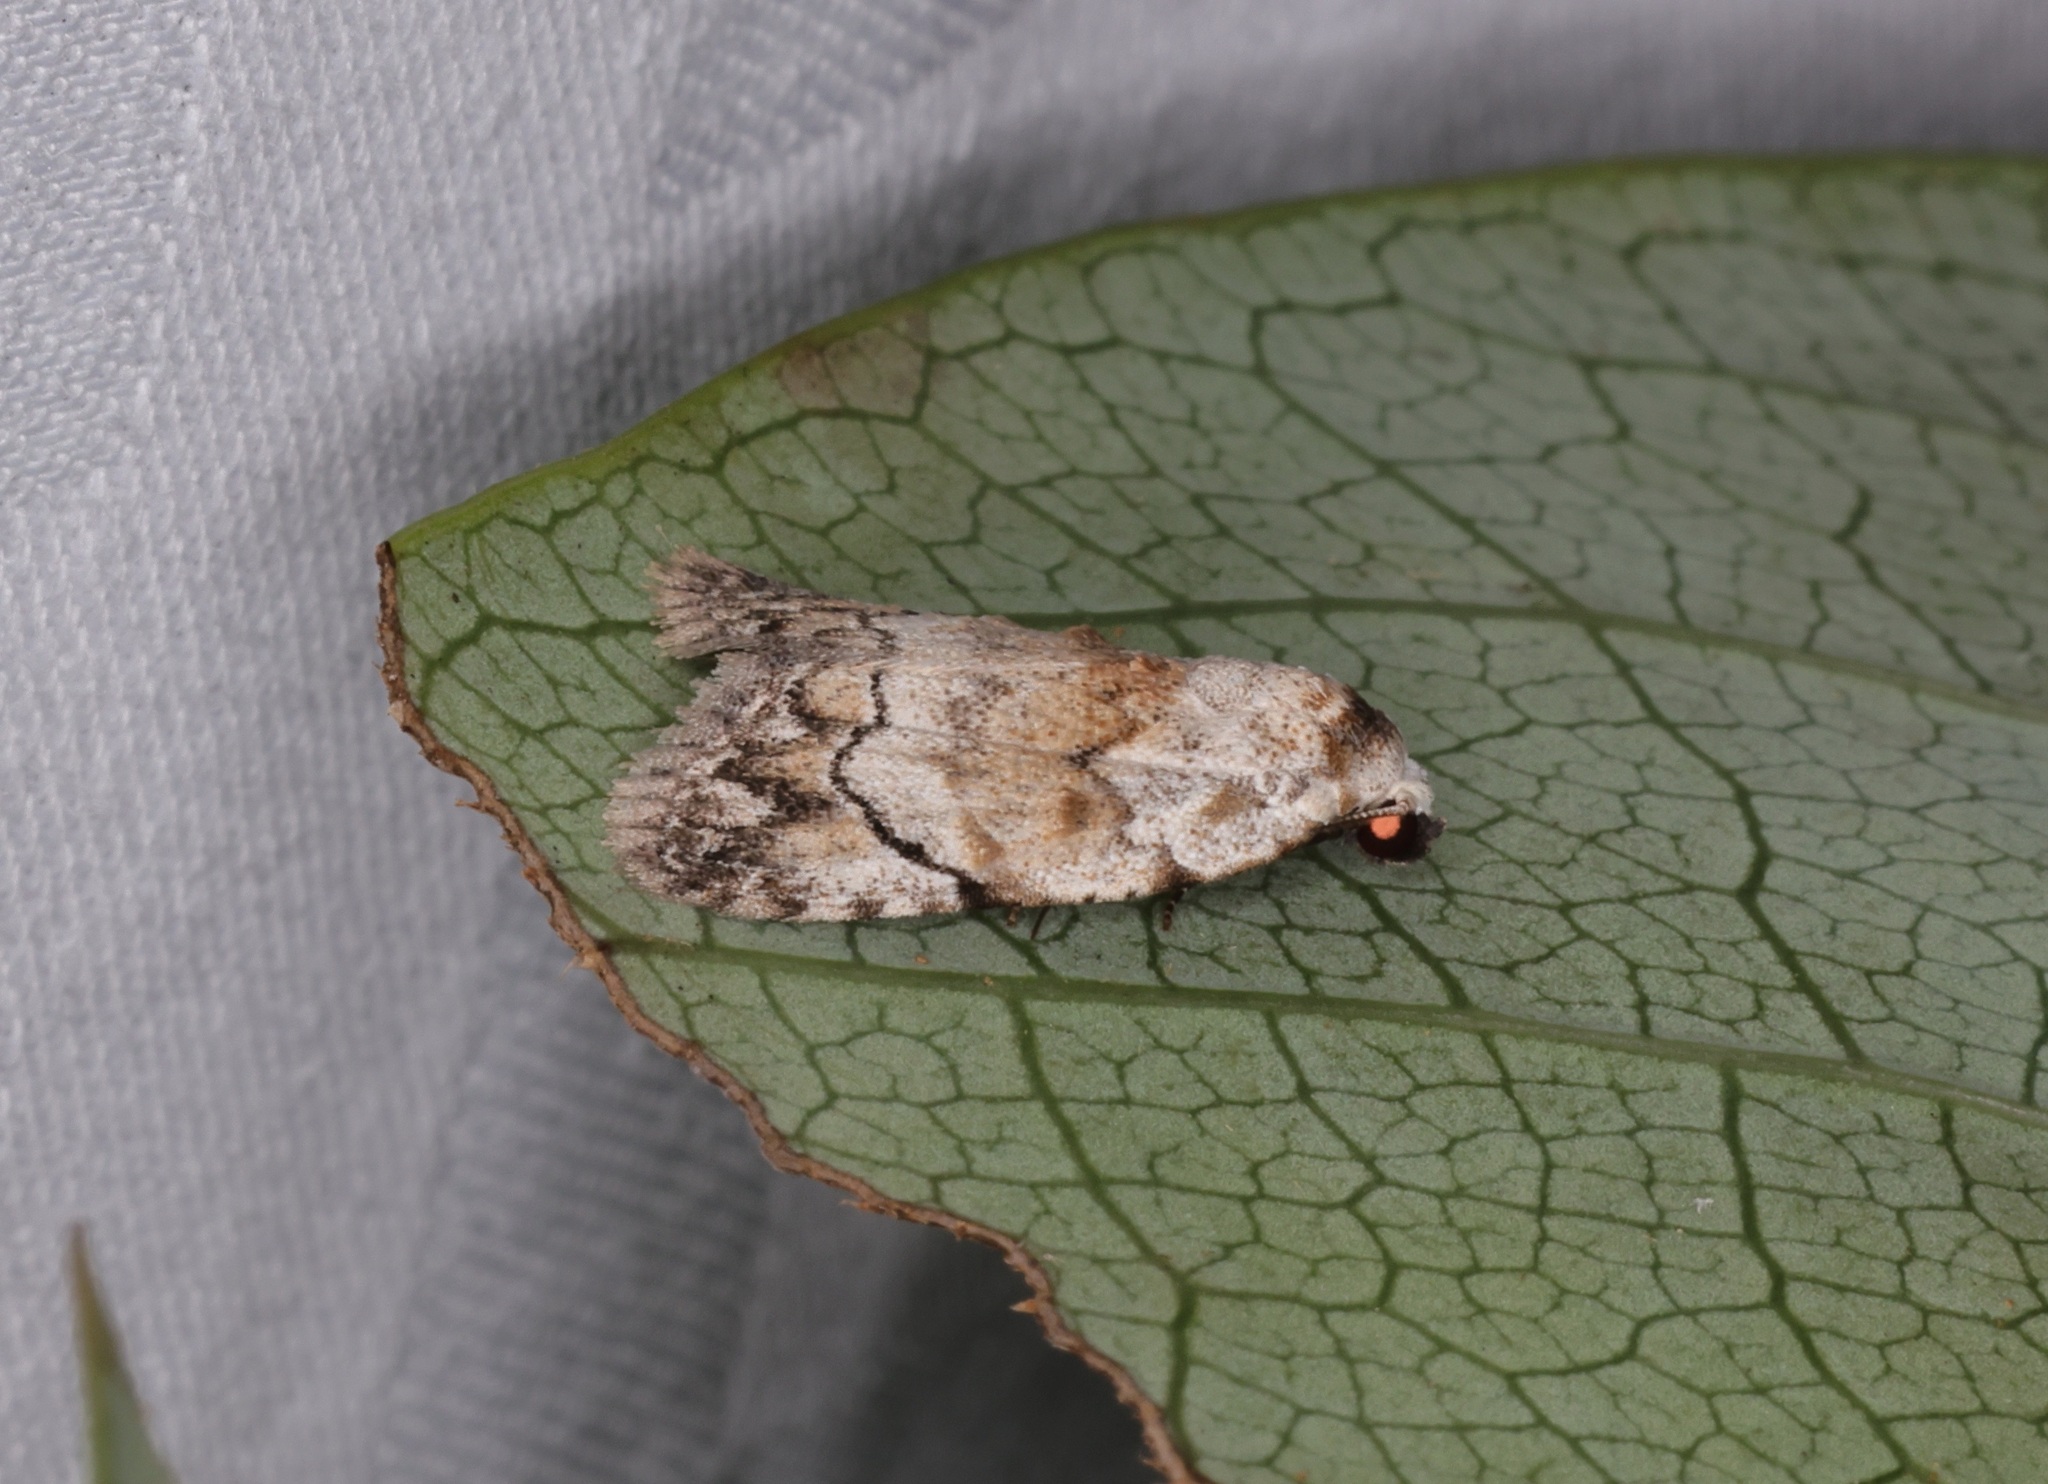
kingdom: Animalia
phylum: Arthropoda
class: Insecta
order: Lepidoptera
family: Nolidae
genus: Melanographia
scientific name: Melanographia flexilineata
